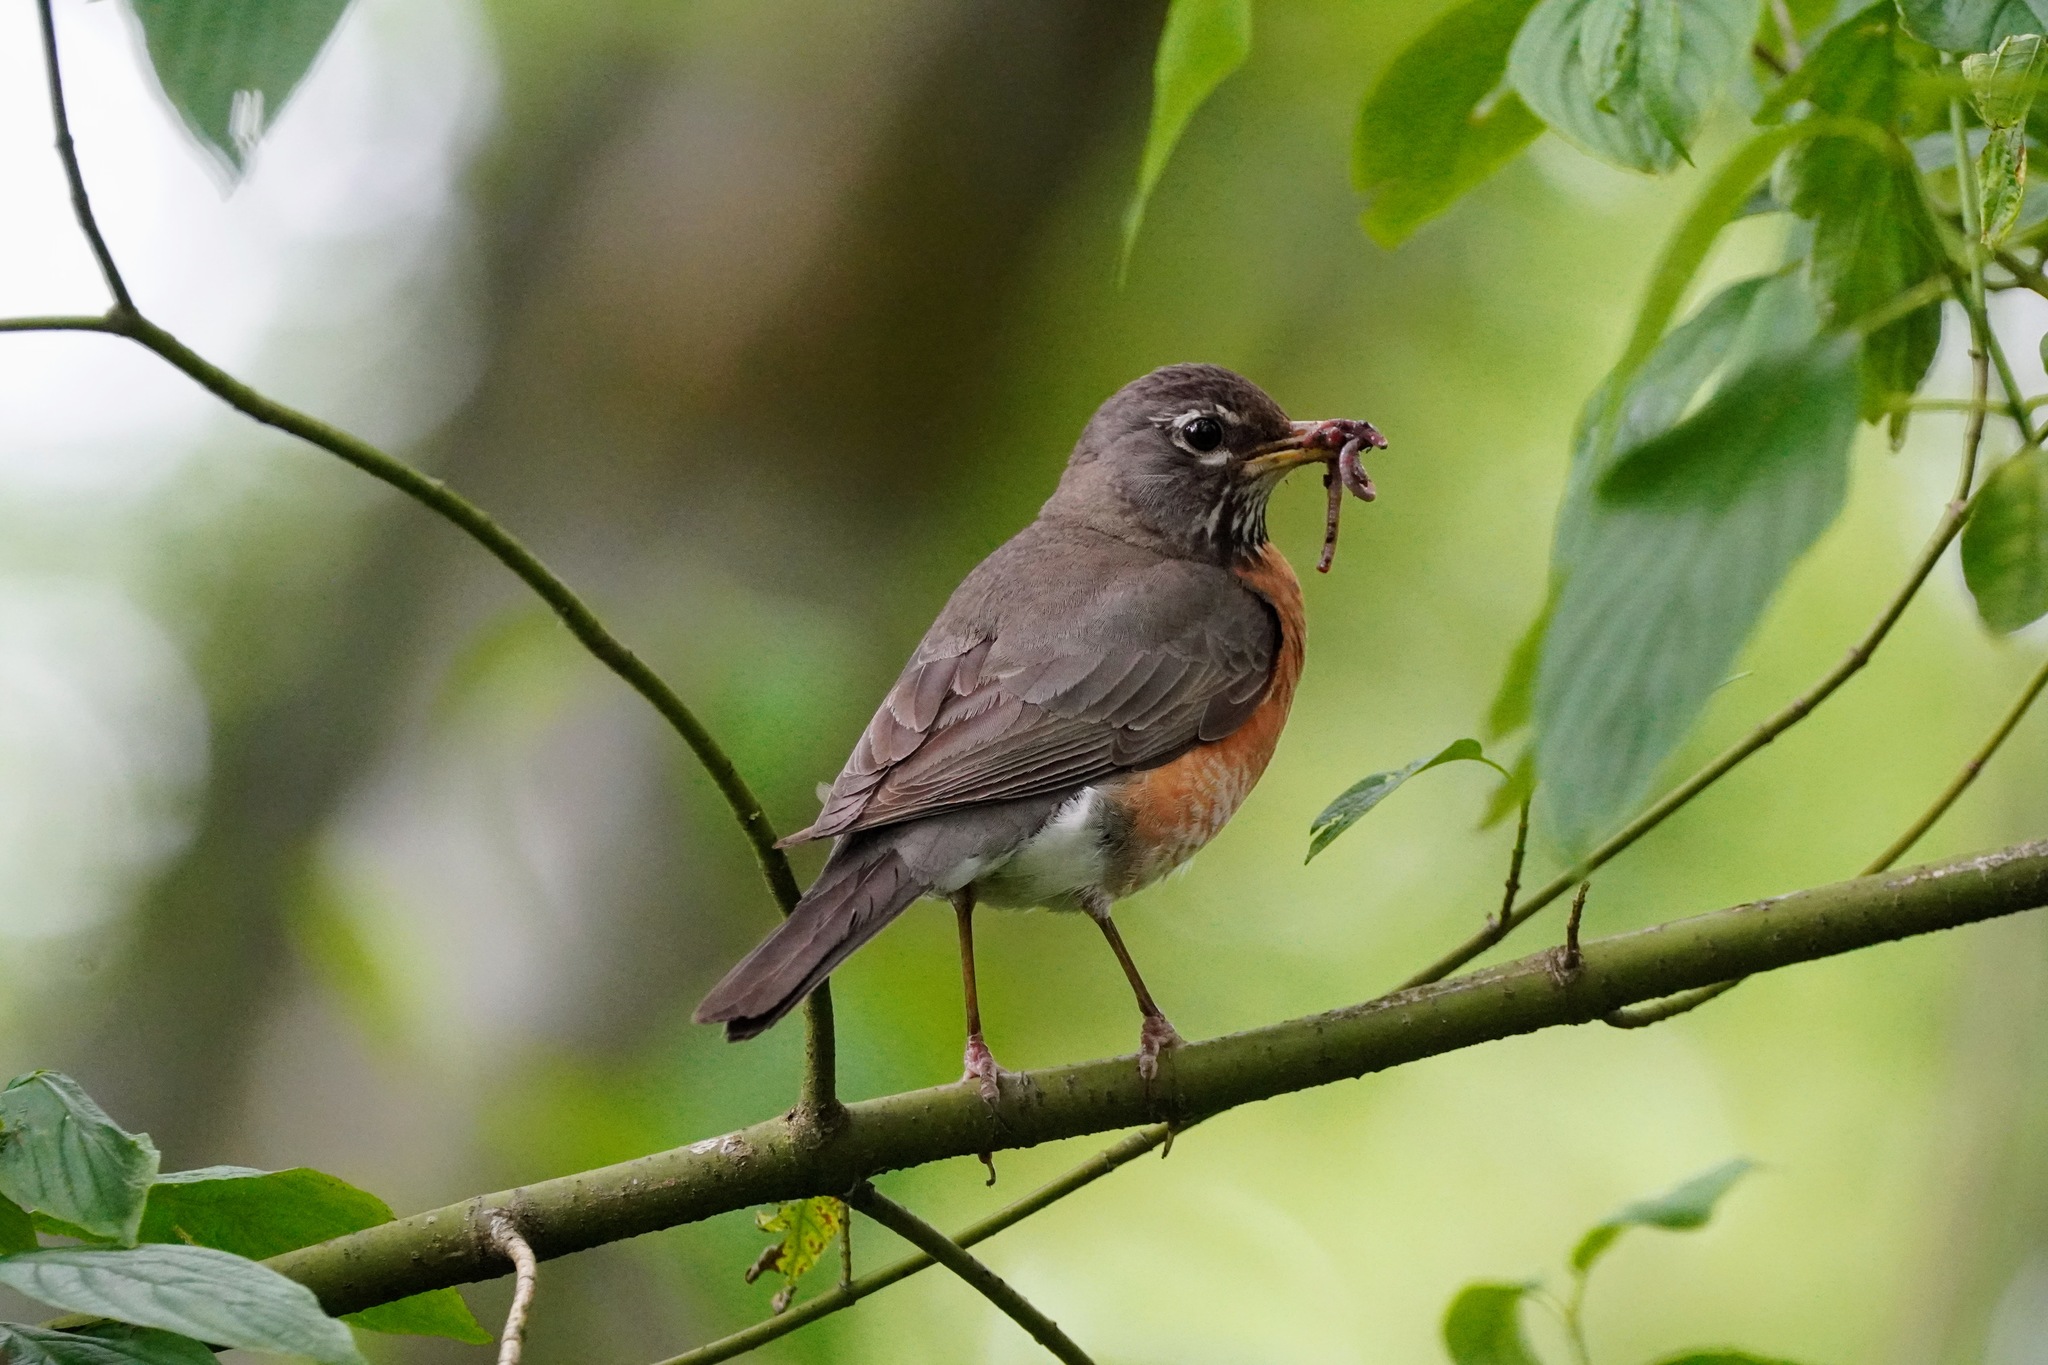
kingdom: Animalia
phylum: Chordata
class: Aves
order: Passeriformes
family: Turdidae
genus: Turdus
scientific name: Turdus migratorius
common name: American robin
